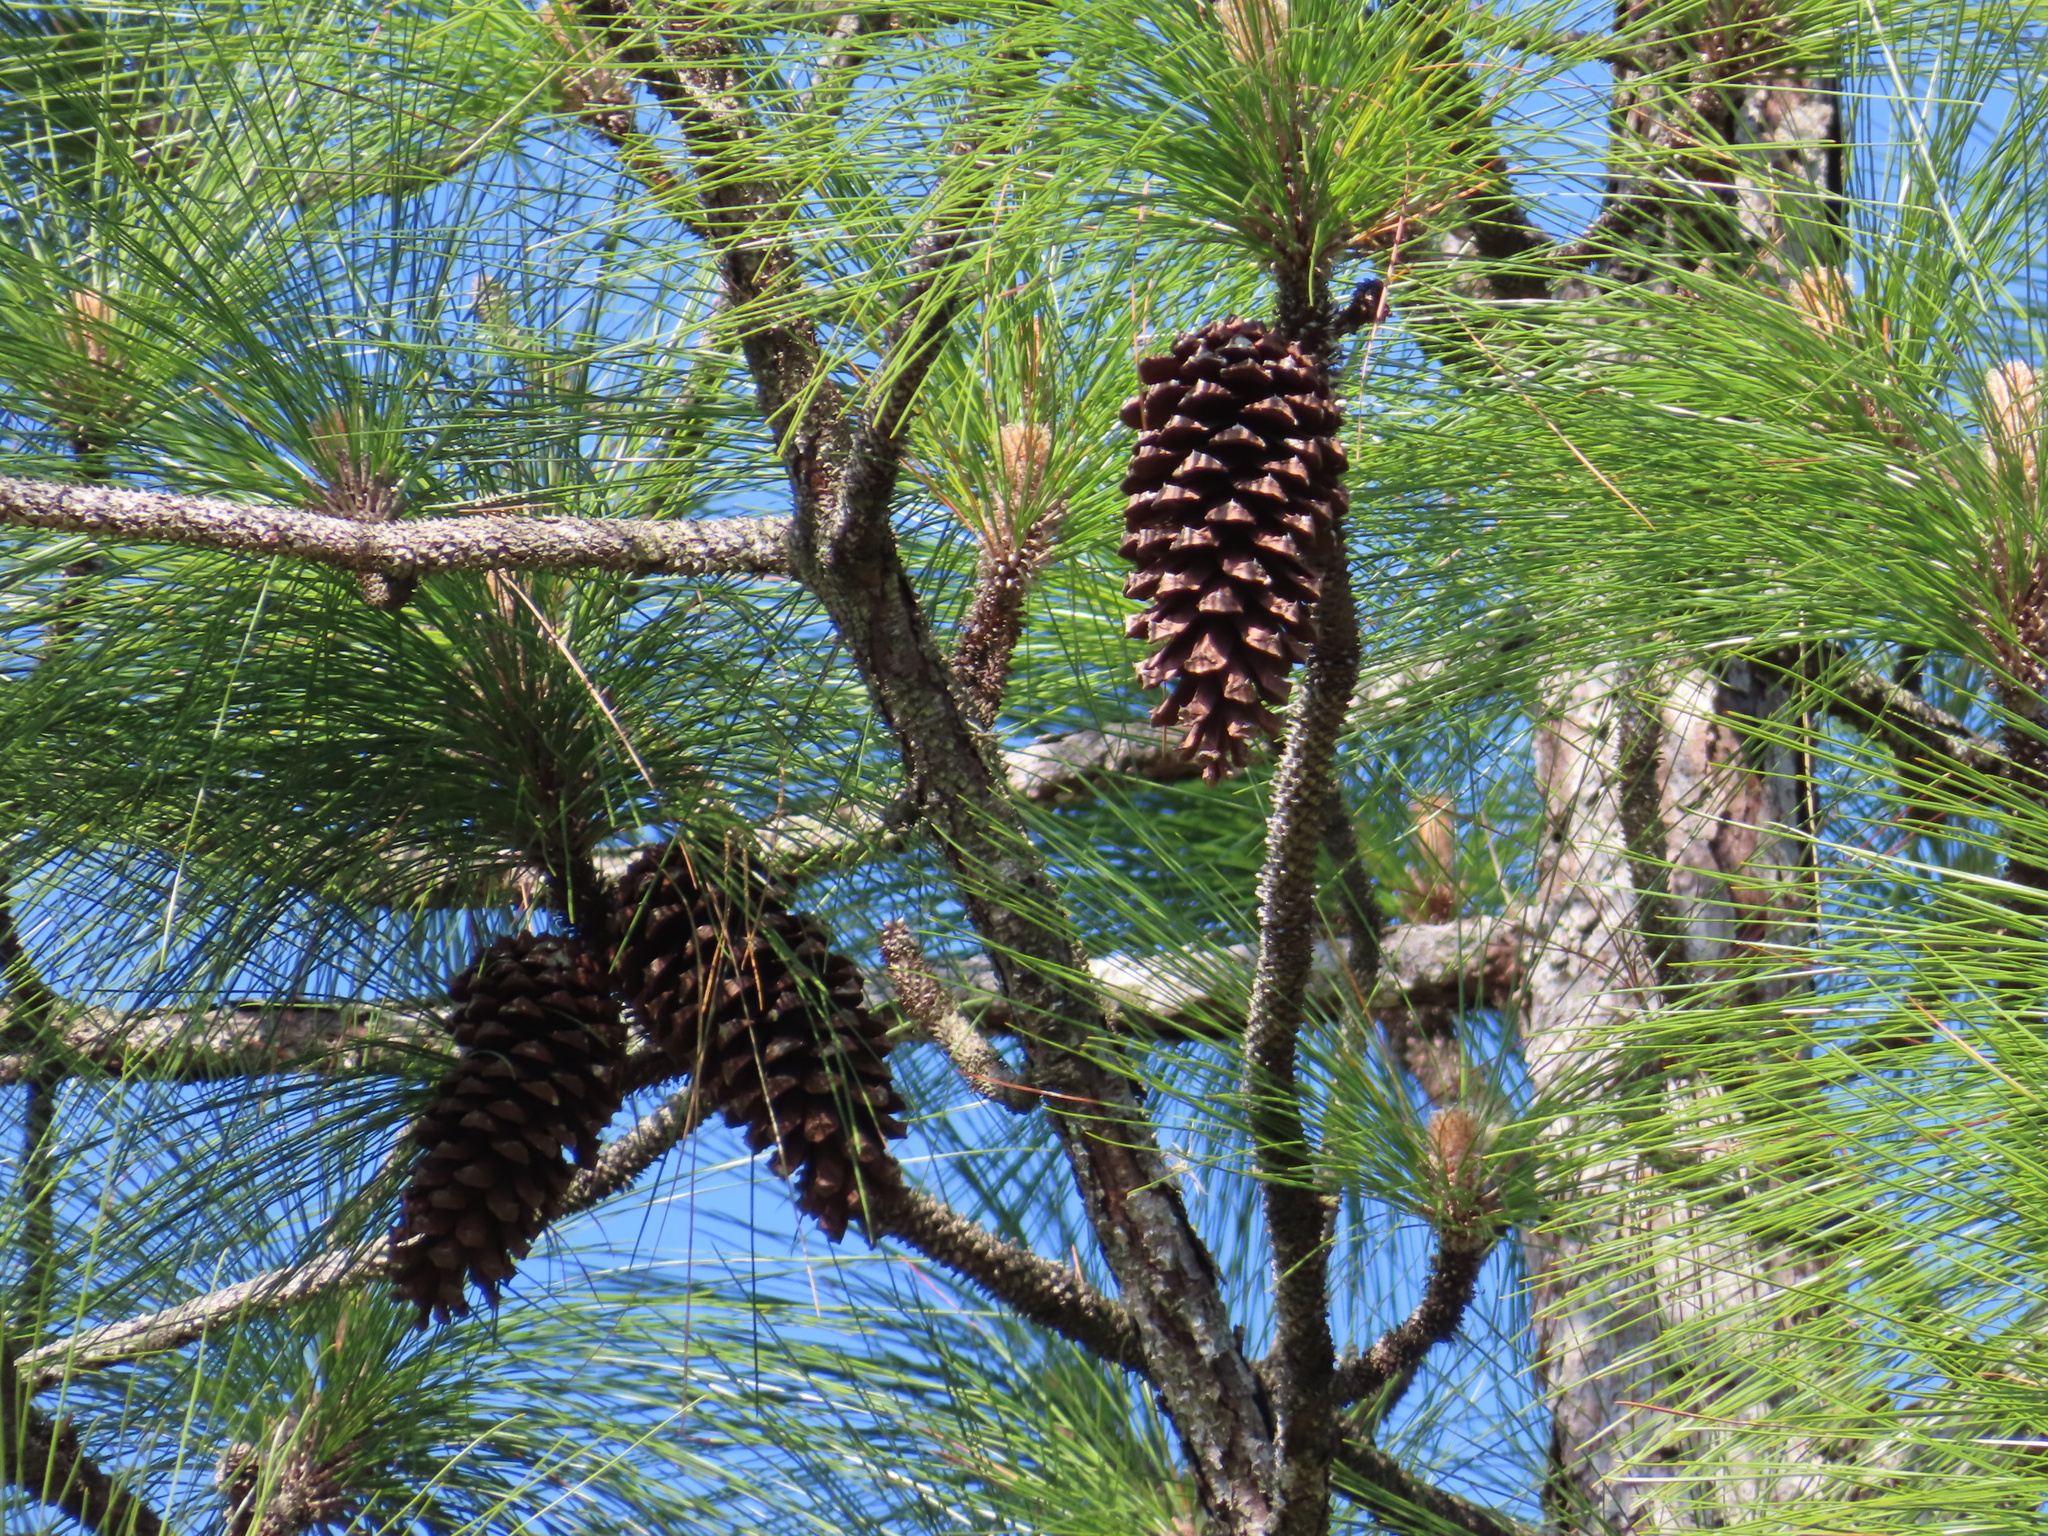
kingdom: Plantae
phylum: Tracheophyta
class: Pinopsida
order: Pinales
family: Pinaceae
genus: Pinus
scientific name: Pinus palustris
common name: Longleaf pine
